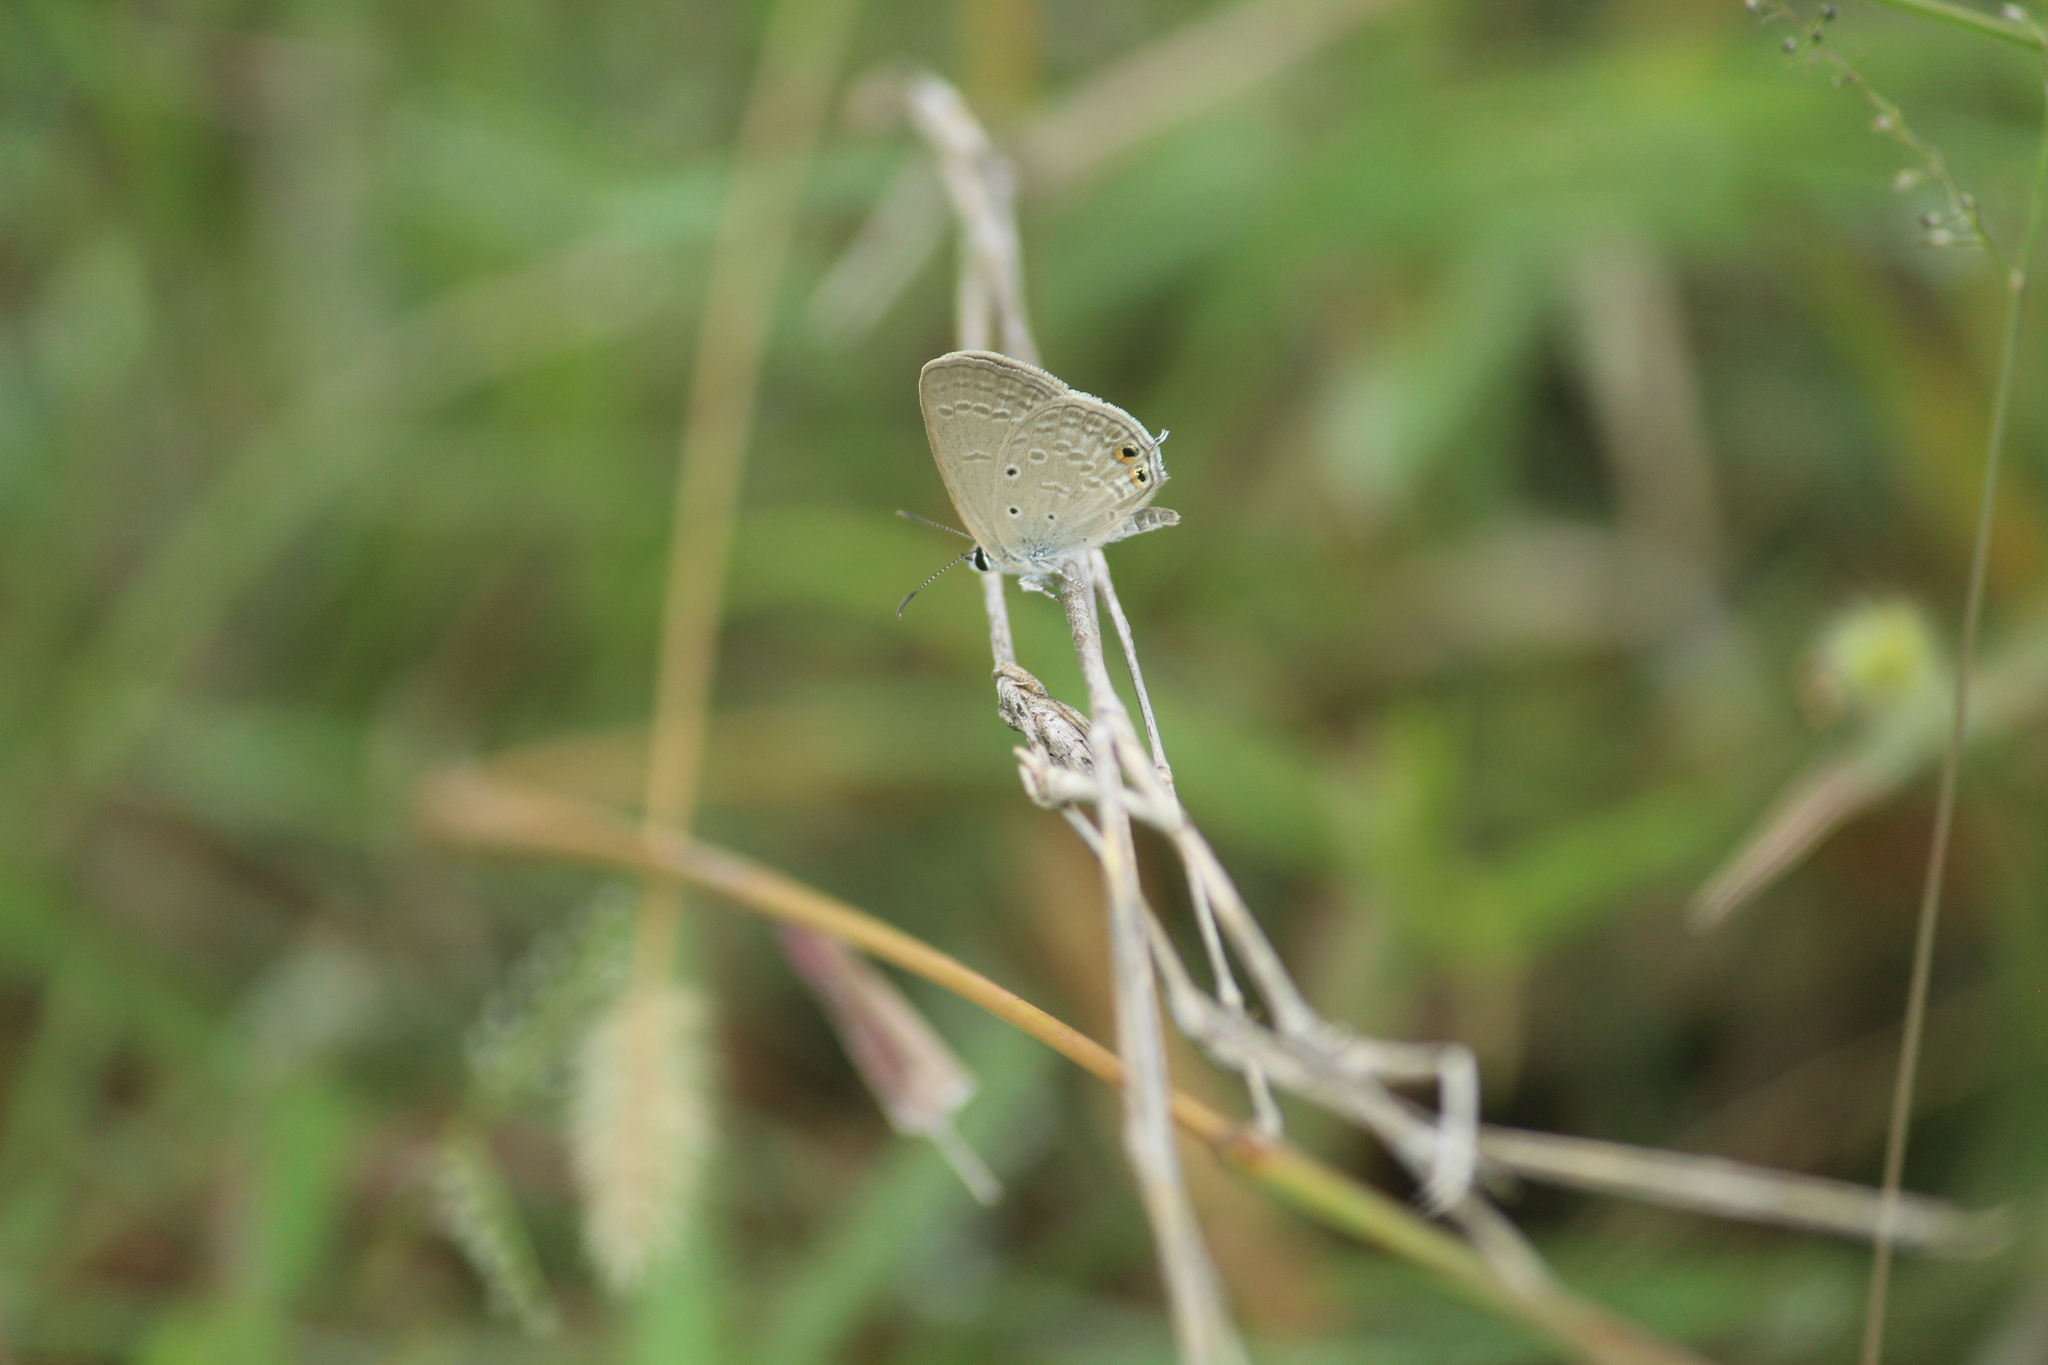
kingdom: Animalia
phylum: Arthropoda
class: Insecta
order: Lepidoptera
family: Lycaenidae
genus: Euchrysops
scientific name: Euchrysops cnejus
